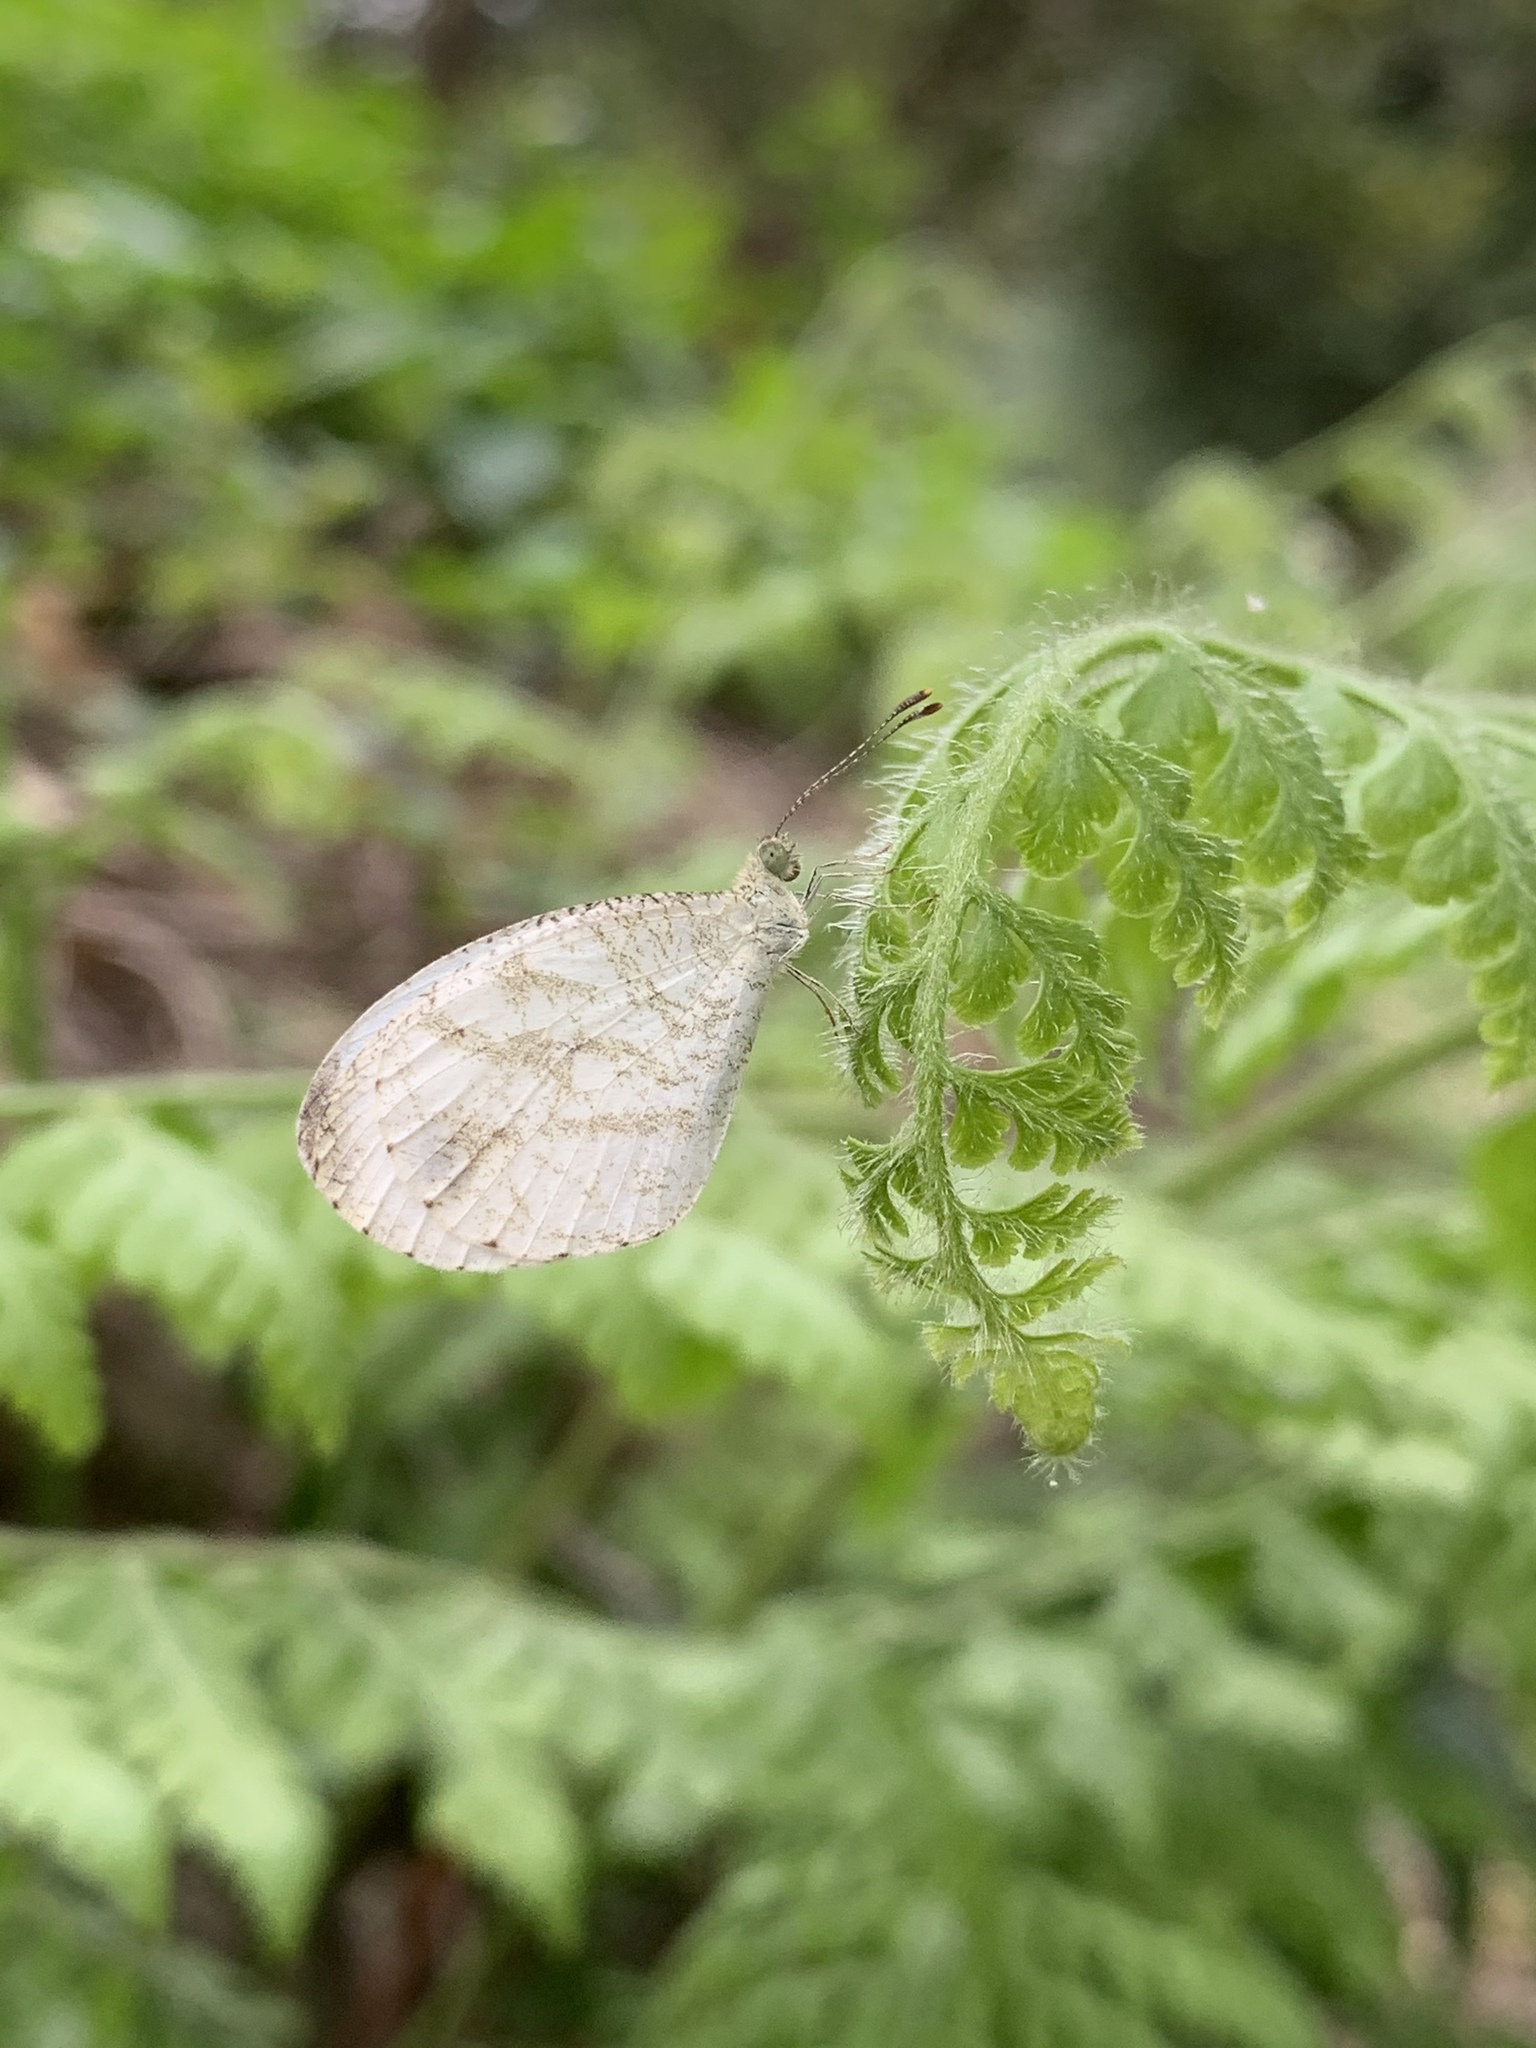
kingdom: Animalia
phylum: Arthropoda
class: Insecta
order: Lepidoptera
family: Pieridae
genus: Leptosia
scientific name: Leptosia nina
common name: Psyche
